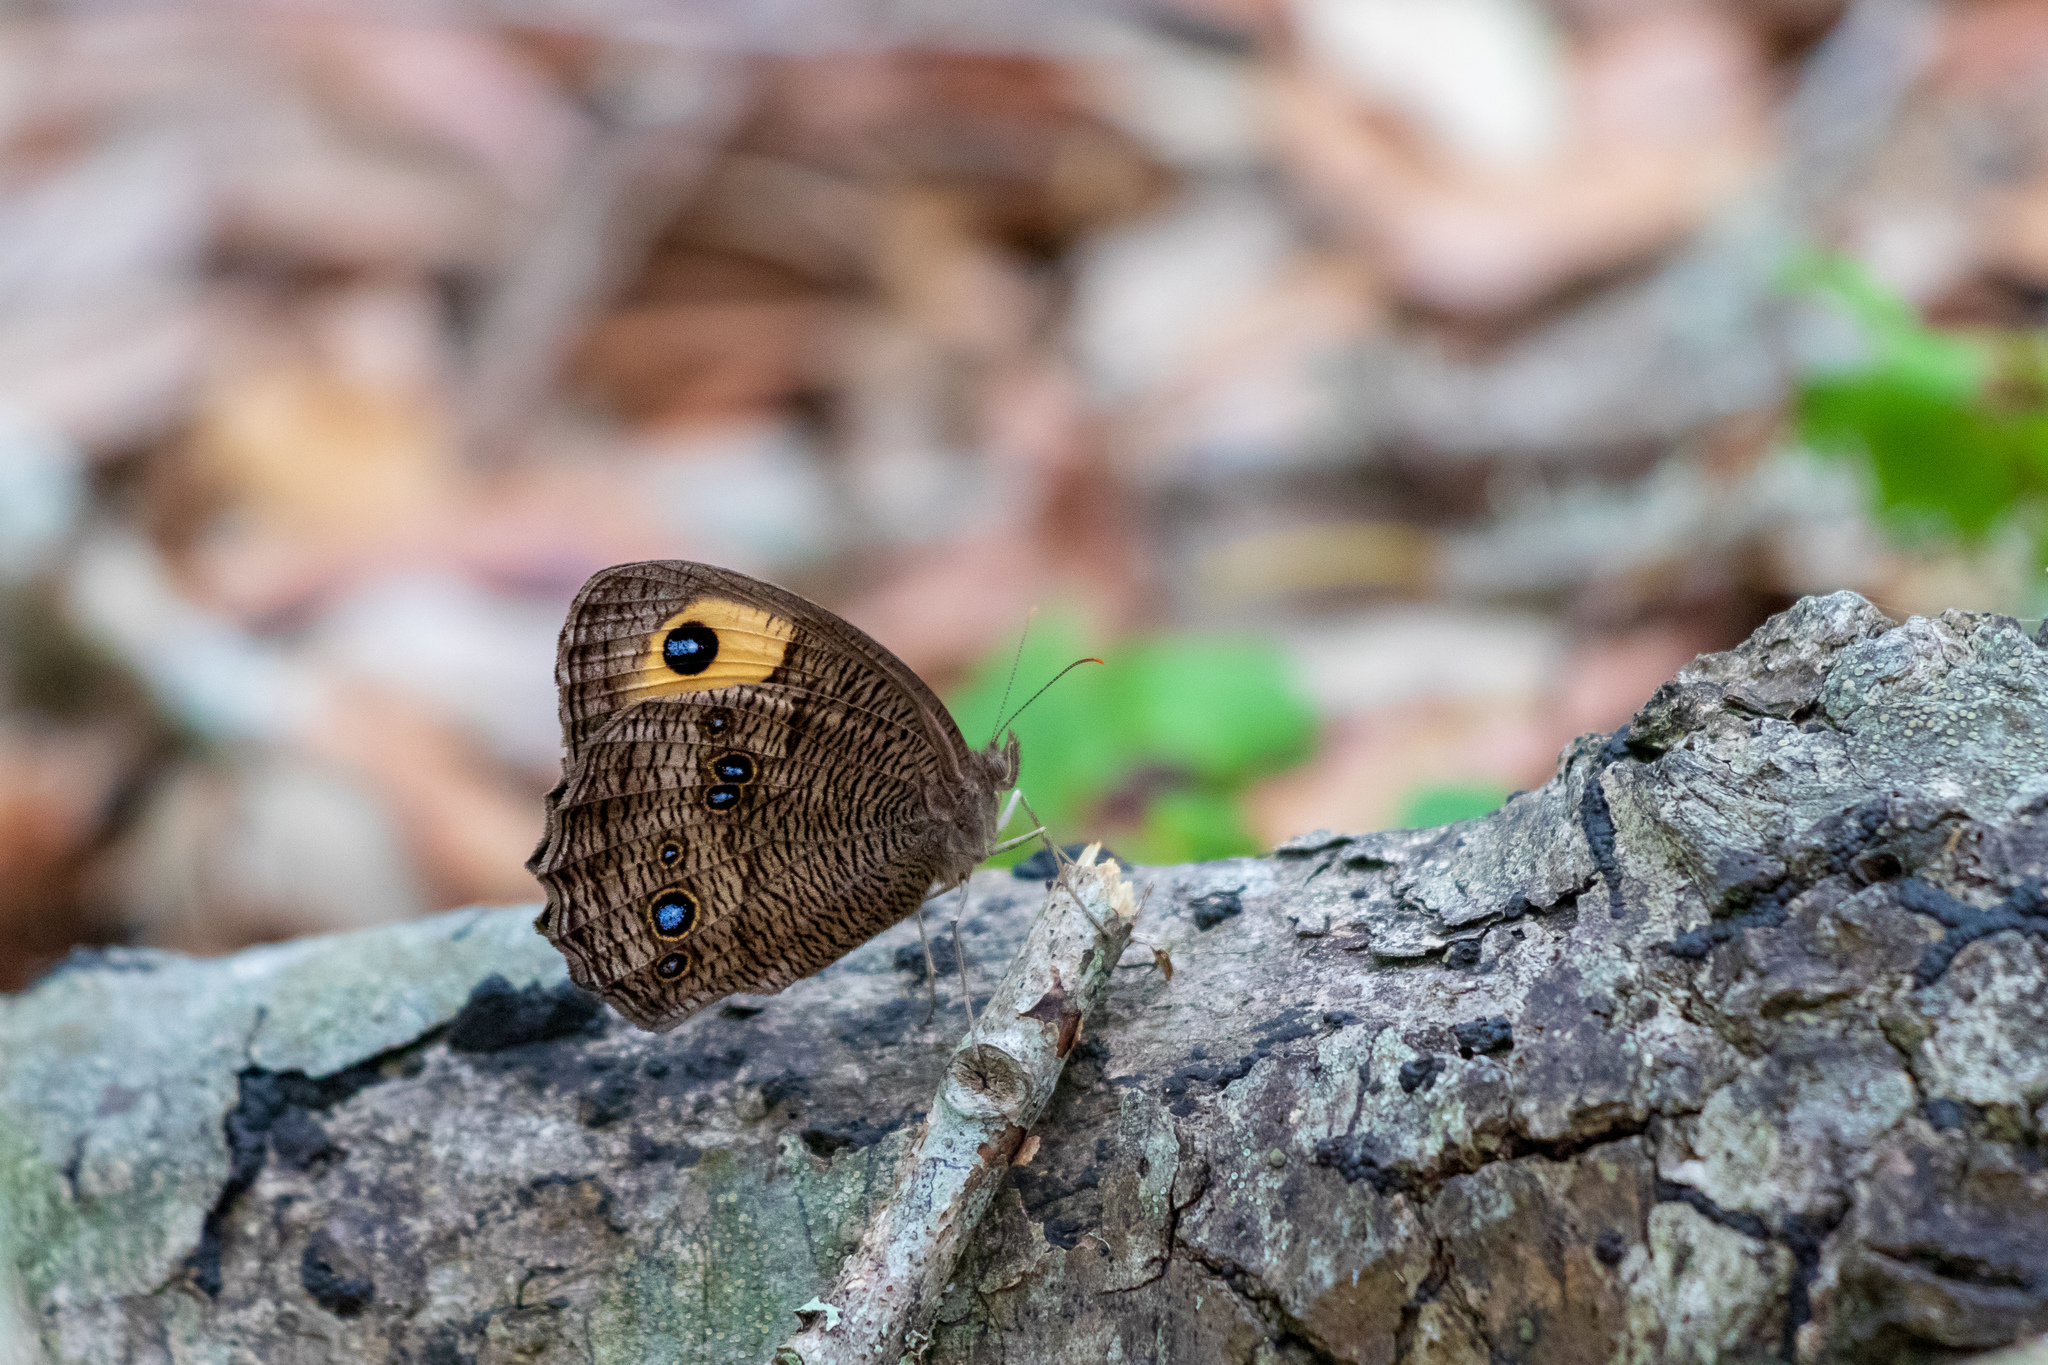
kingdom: Animalia
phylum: Arthropoda
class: Insecta
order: Lepidoptera
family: Nymphalidae
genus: Cercyonis
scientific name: Cercyonis pegala
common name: Common wood-nymph
